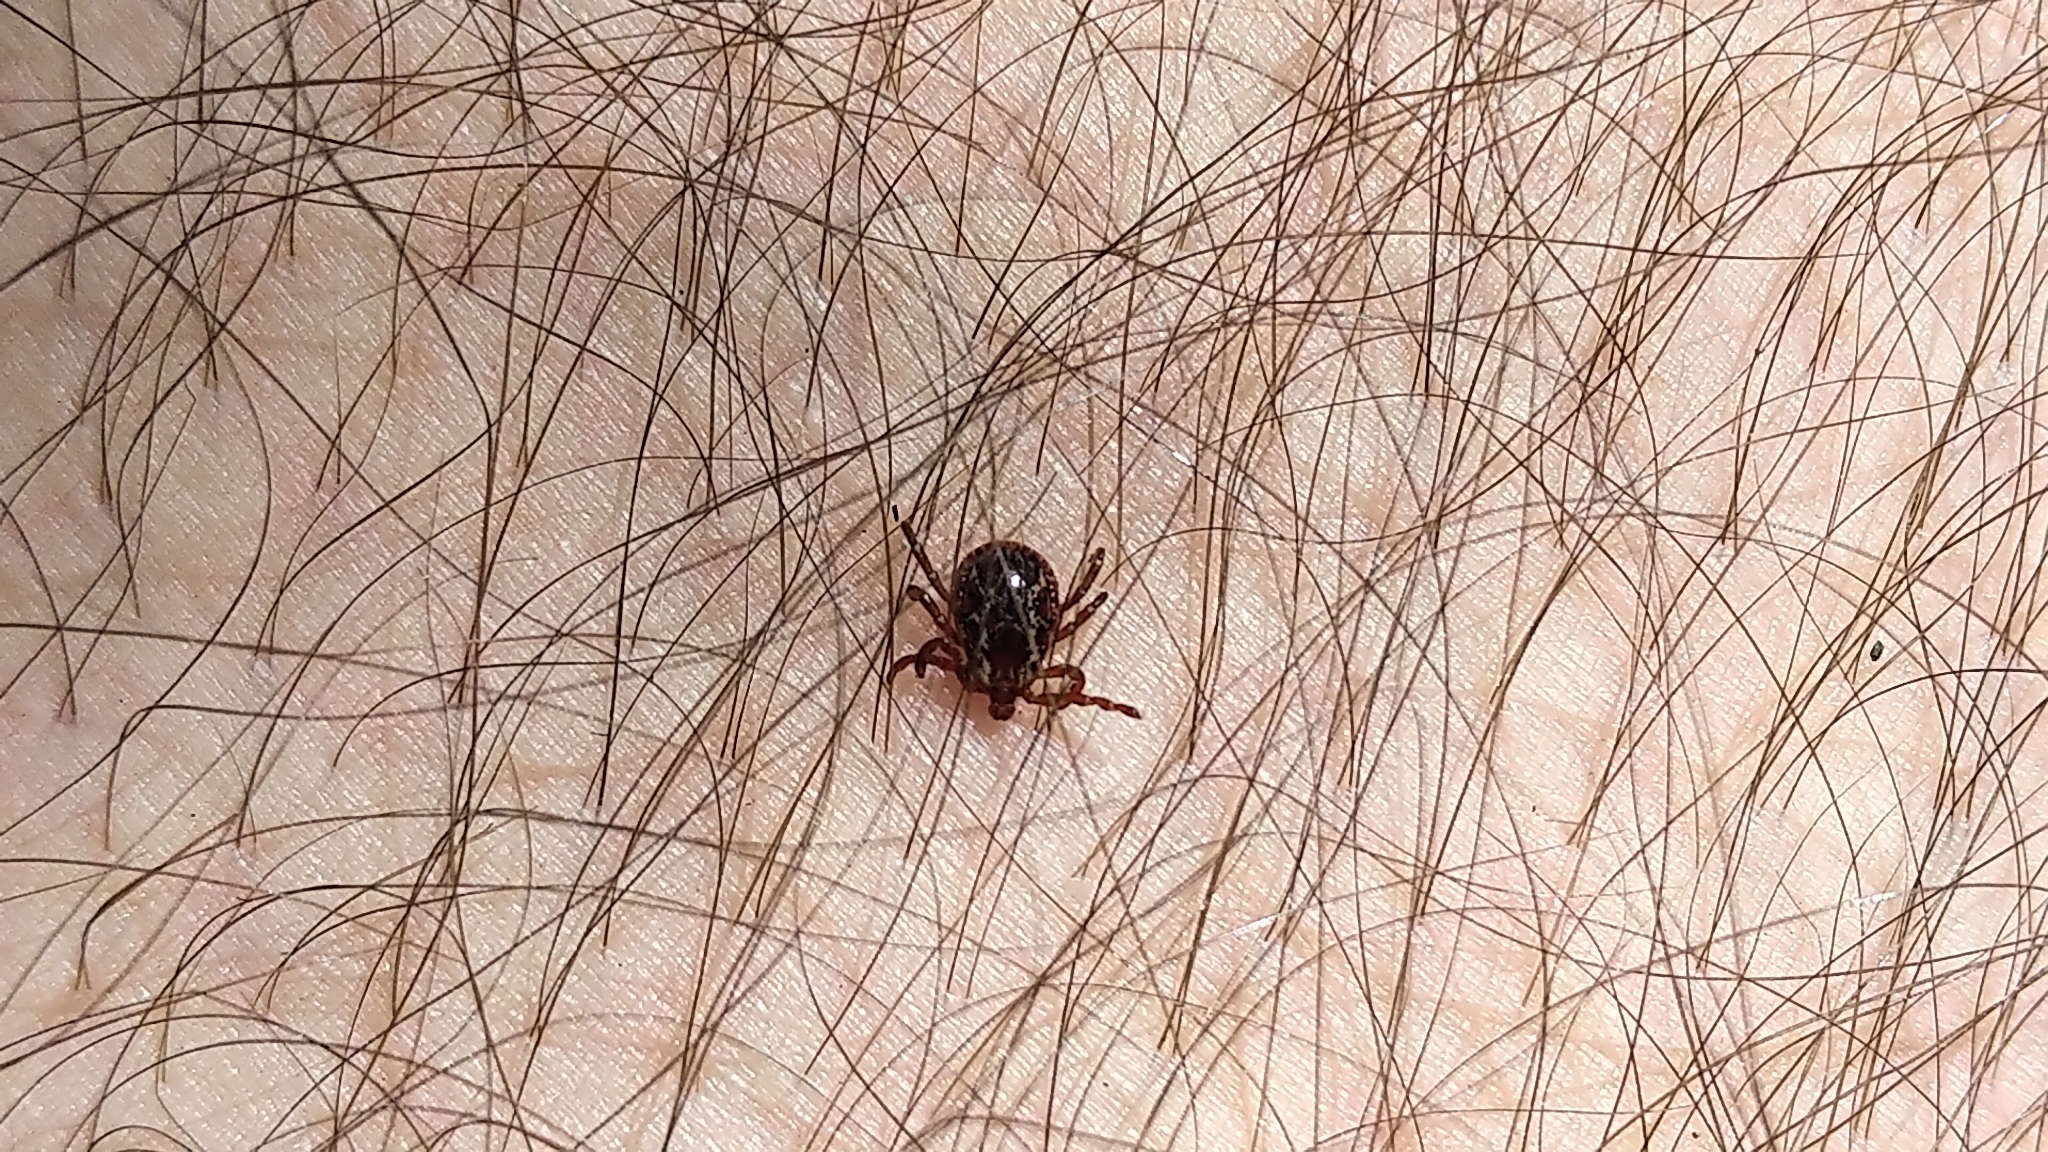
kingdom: Animalia
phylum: Arthropoda
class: Arachnida
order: Ixodida
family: Ixodidae
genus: Dermacentor
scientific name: Dermacentor variabilis
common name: American dog tick
